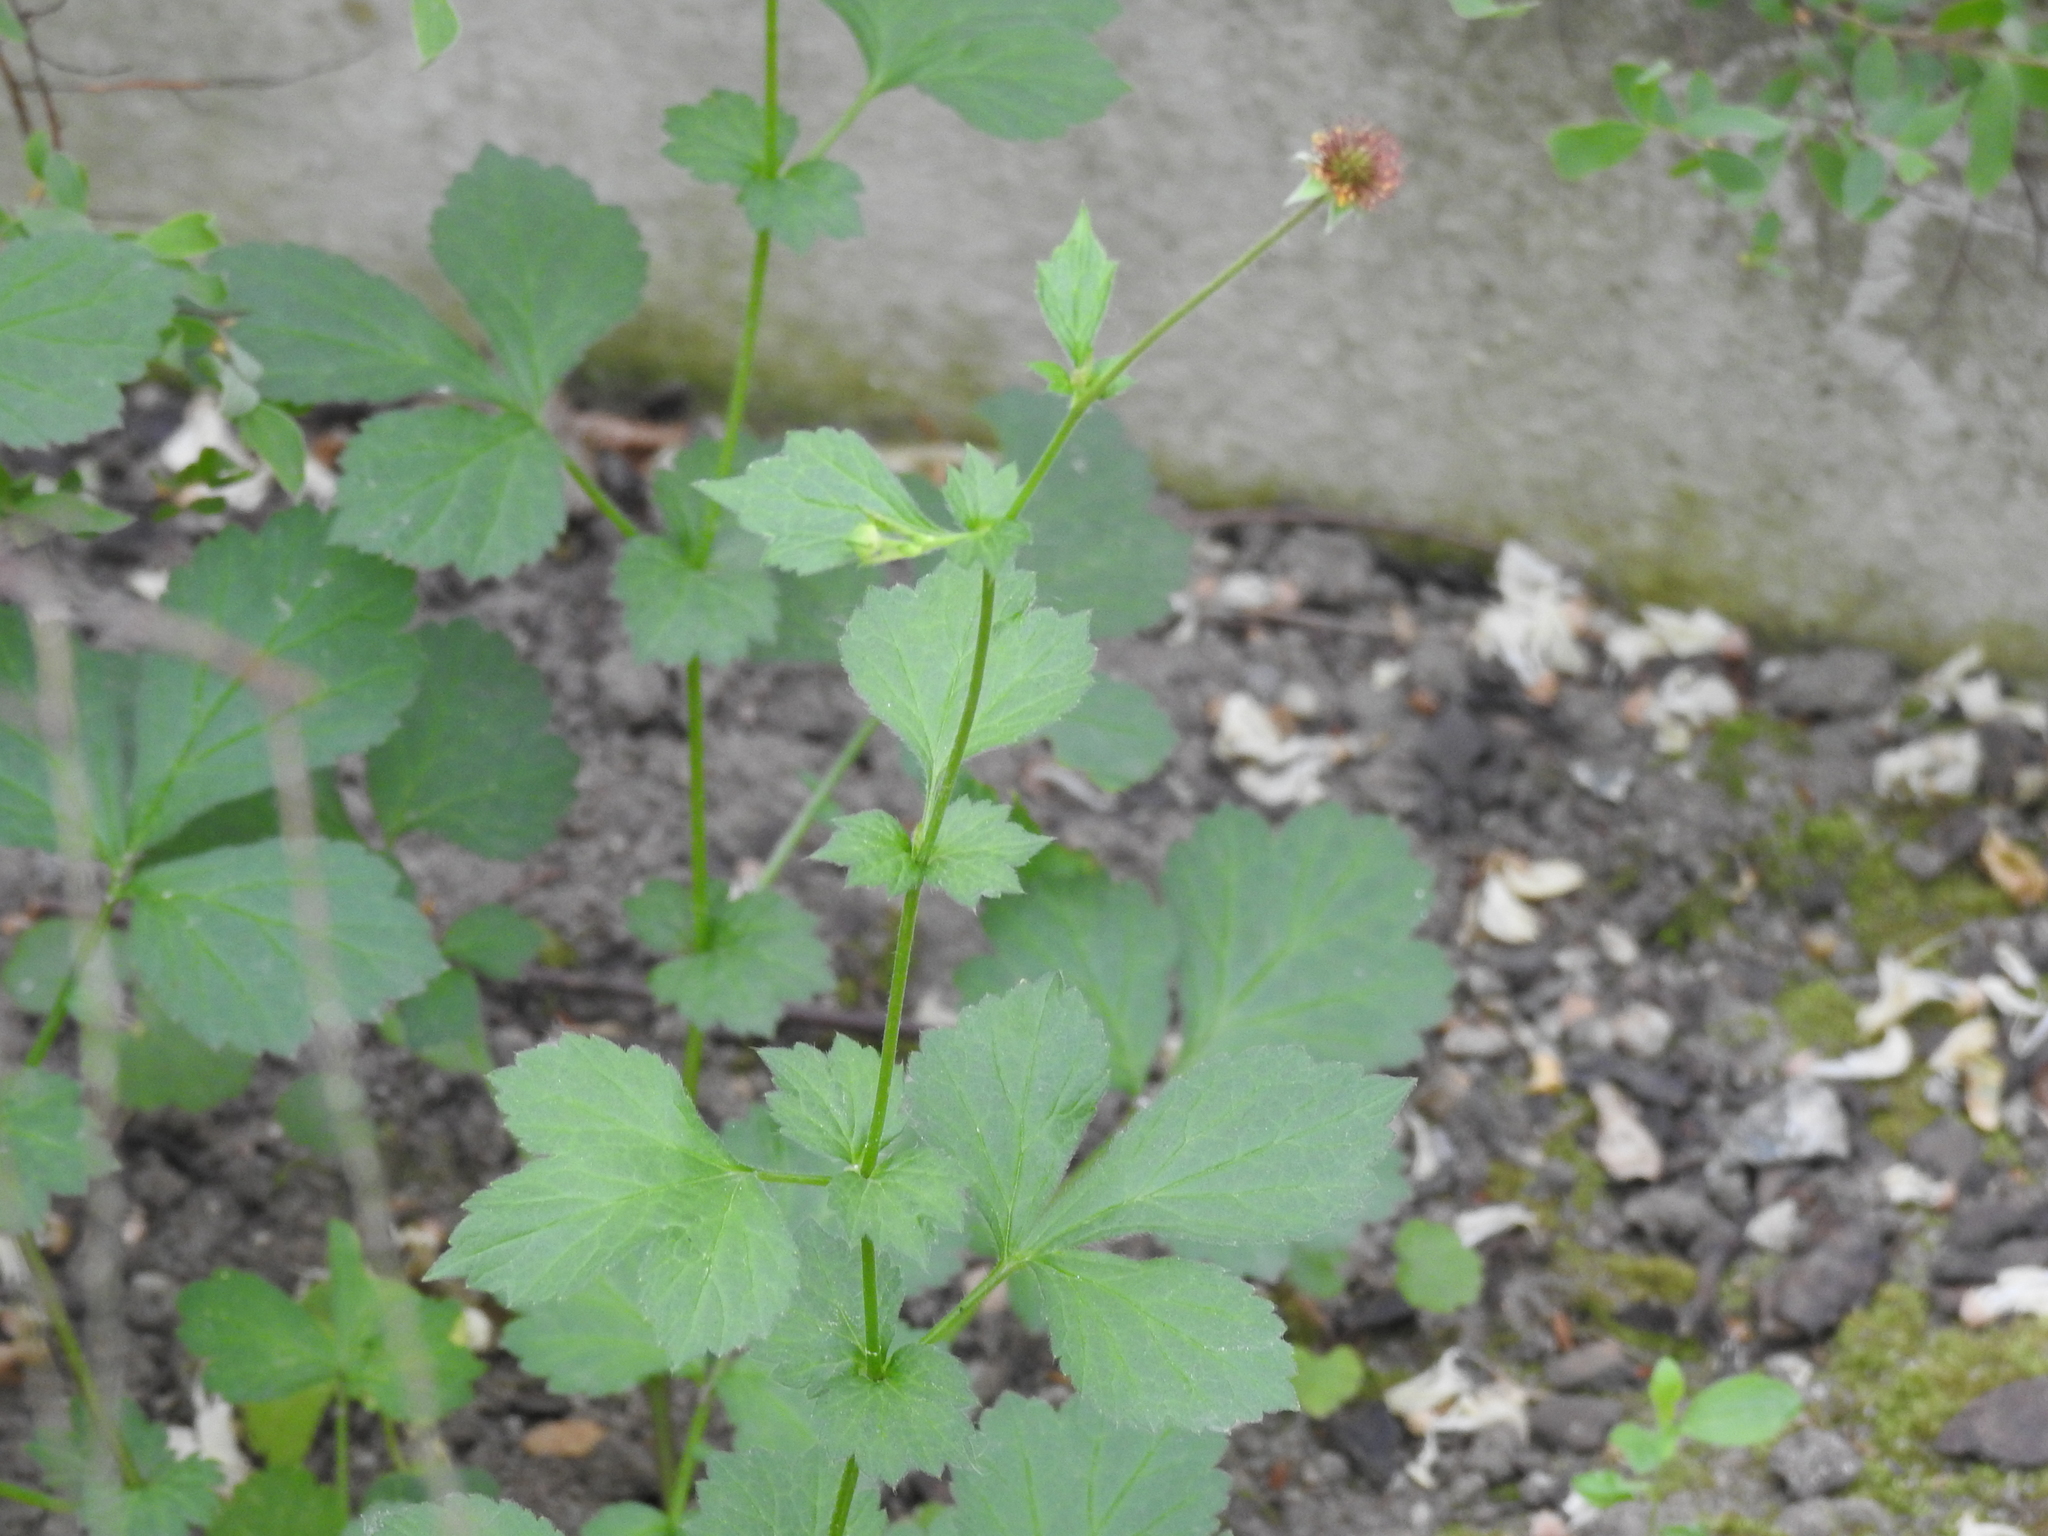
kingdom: Plantae
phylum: Tracheophyta
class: Magnoliopsida
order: Rosales
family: Rosaceae
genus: Geum
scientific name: Geum urbanum
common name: Wood avens
